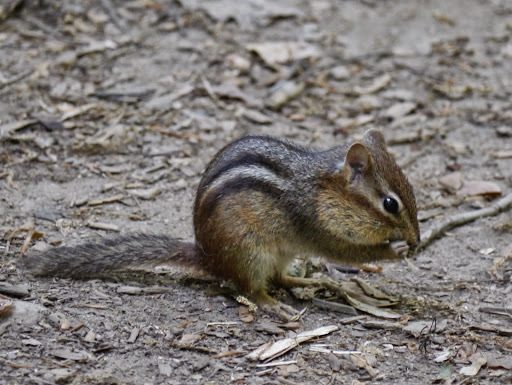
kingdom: Animalia
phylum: Chordata
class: Mammalia
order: Rodentia
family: Sciuridae
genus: Tamias
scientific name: Tamias striatus
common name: Eastern chipmunk
